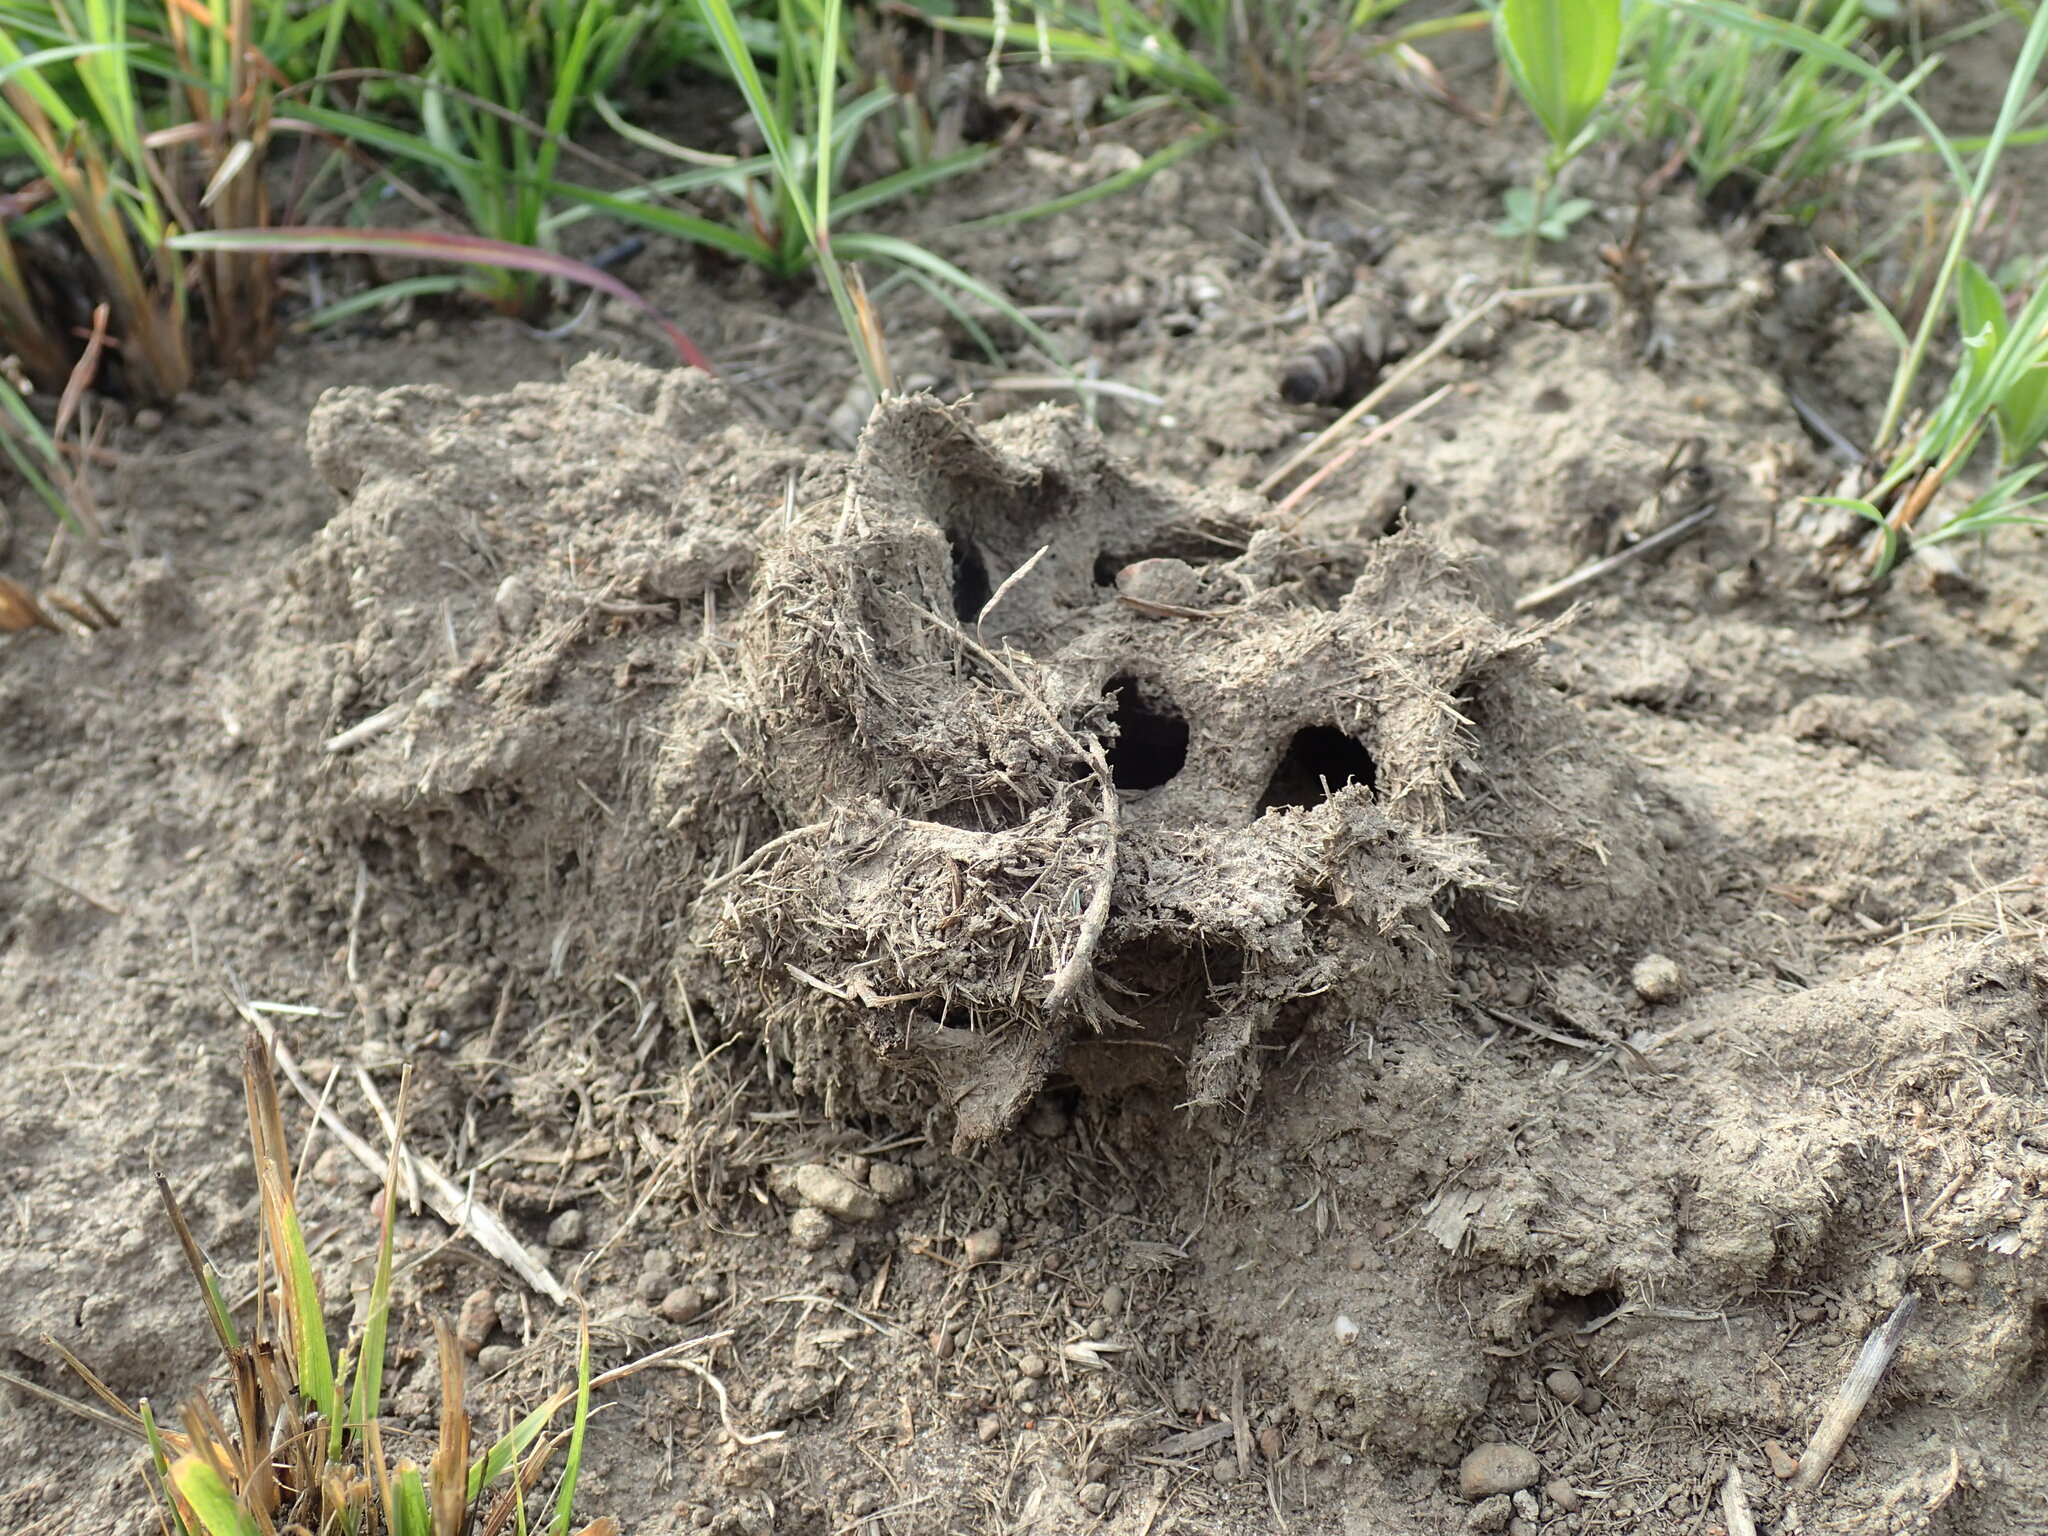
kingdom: Animalia
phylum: Arthropoda
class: Insecta
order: Hymenoptera
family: Formicidae
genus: Polyrhachis
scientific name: Polyrhachis schistacea
